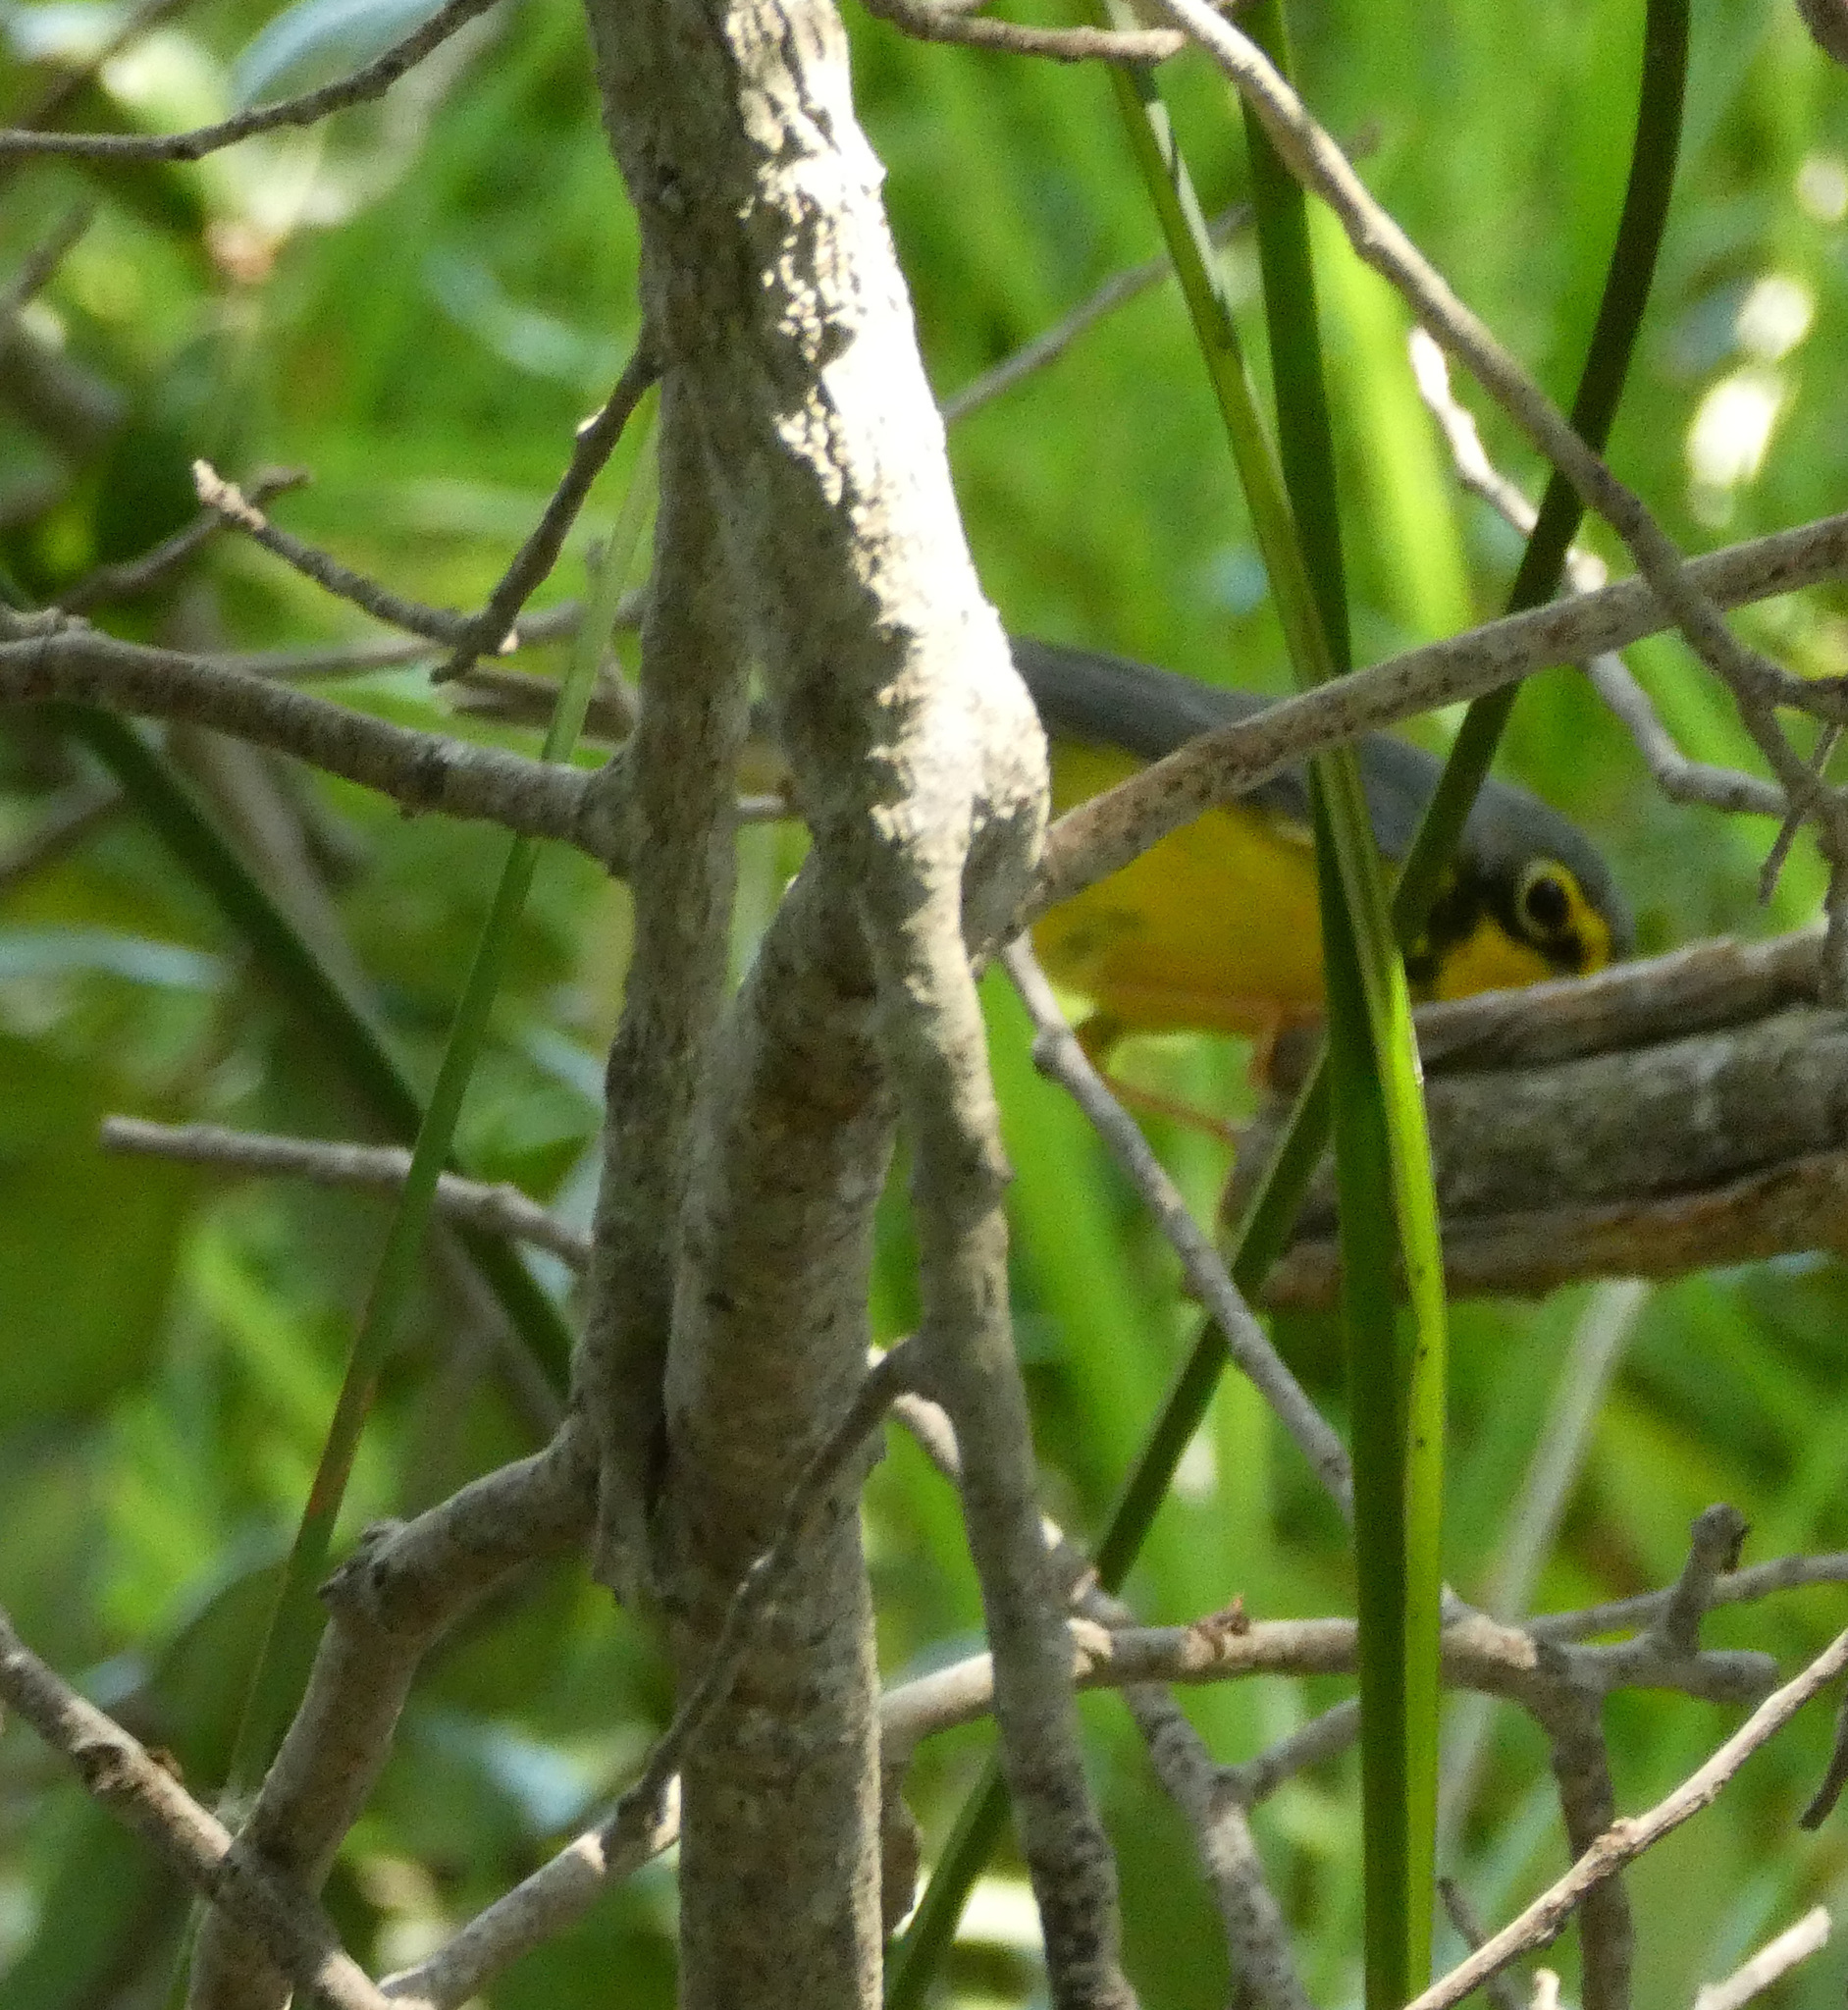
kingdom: Animalia
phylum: Chordata
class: Aves
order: Passeriformes
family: Parulidae
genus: Cardellina
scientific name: Cardellina canadensis
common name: Canada warbler
